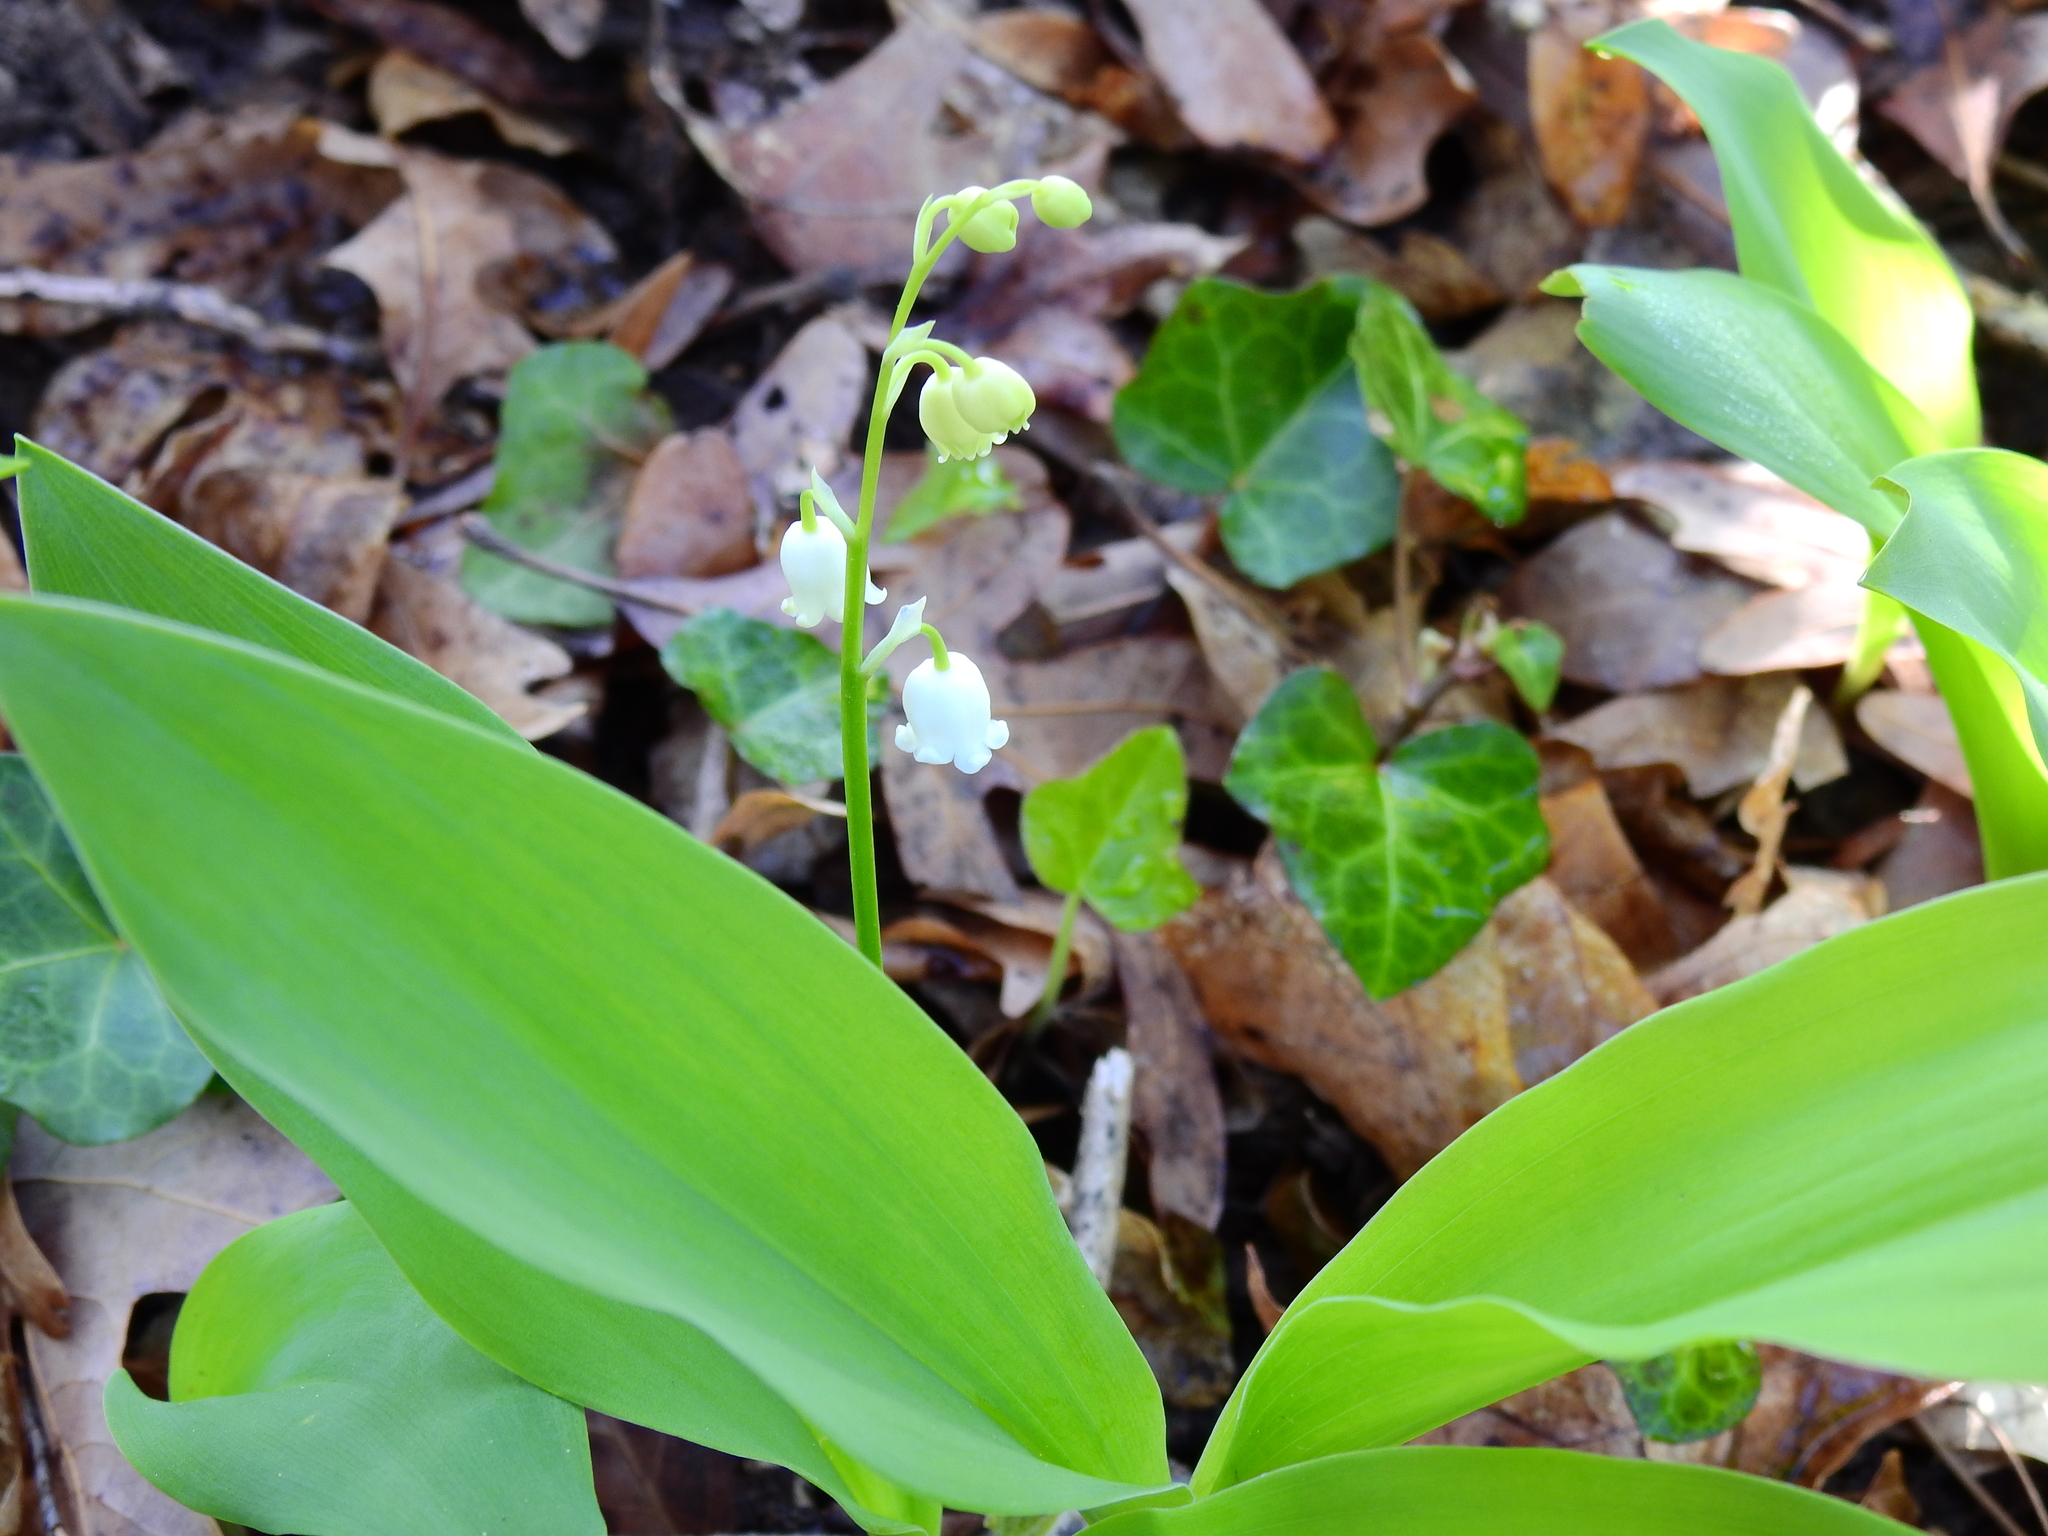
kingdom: Plantae
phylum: Tracheophyta
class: Liliopsida
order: Asparagales
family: Asparagaceae
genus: Convallaria
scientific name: Convallaria majalis
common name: Lily-of-the-valley
